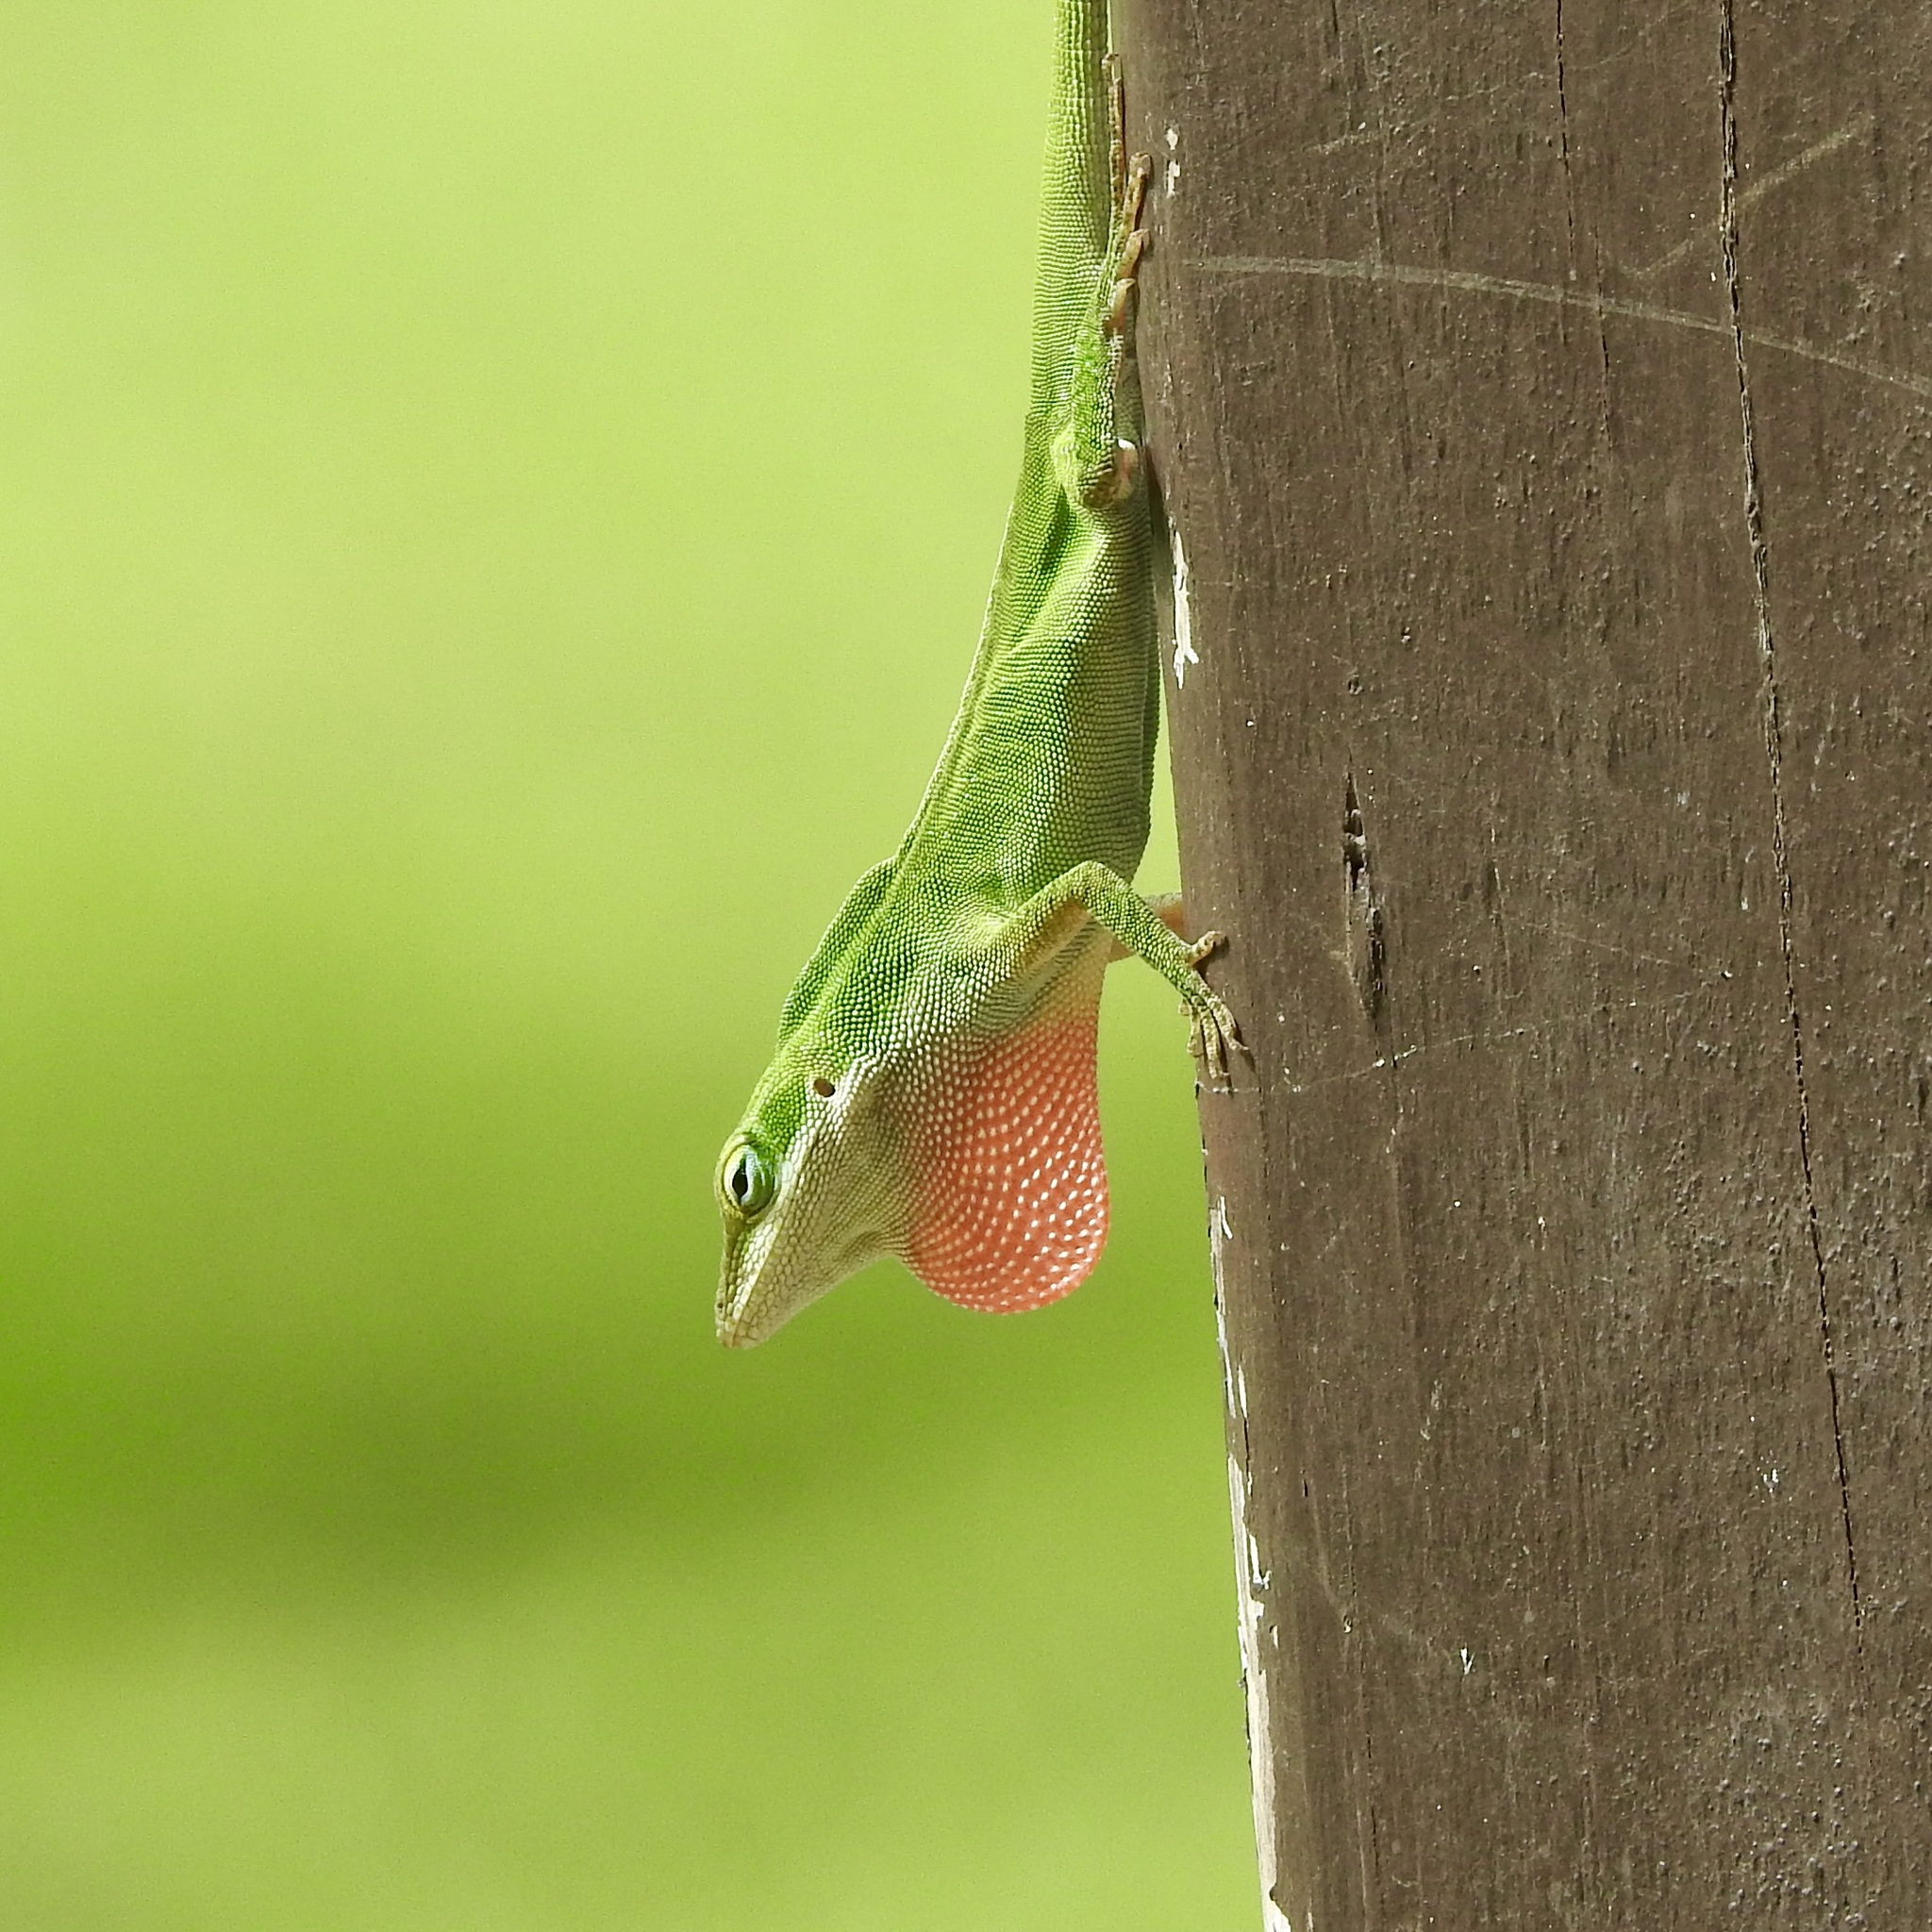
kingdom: Animalia
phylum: Chordata
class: Squamata
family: Dactyloidae
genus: Anolis
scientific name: Anolis carolinensis
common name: Green anole
